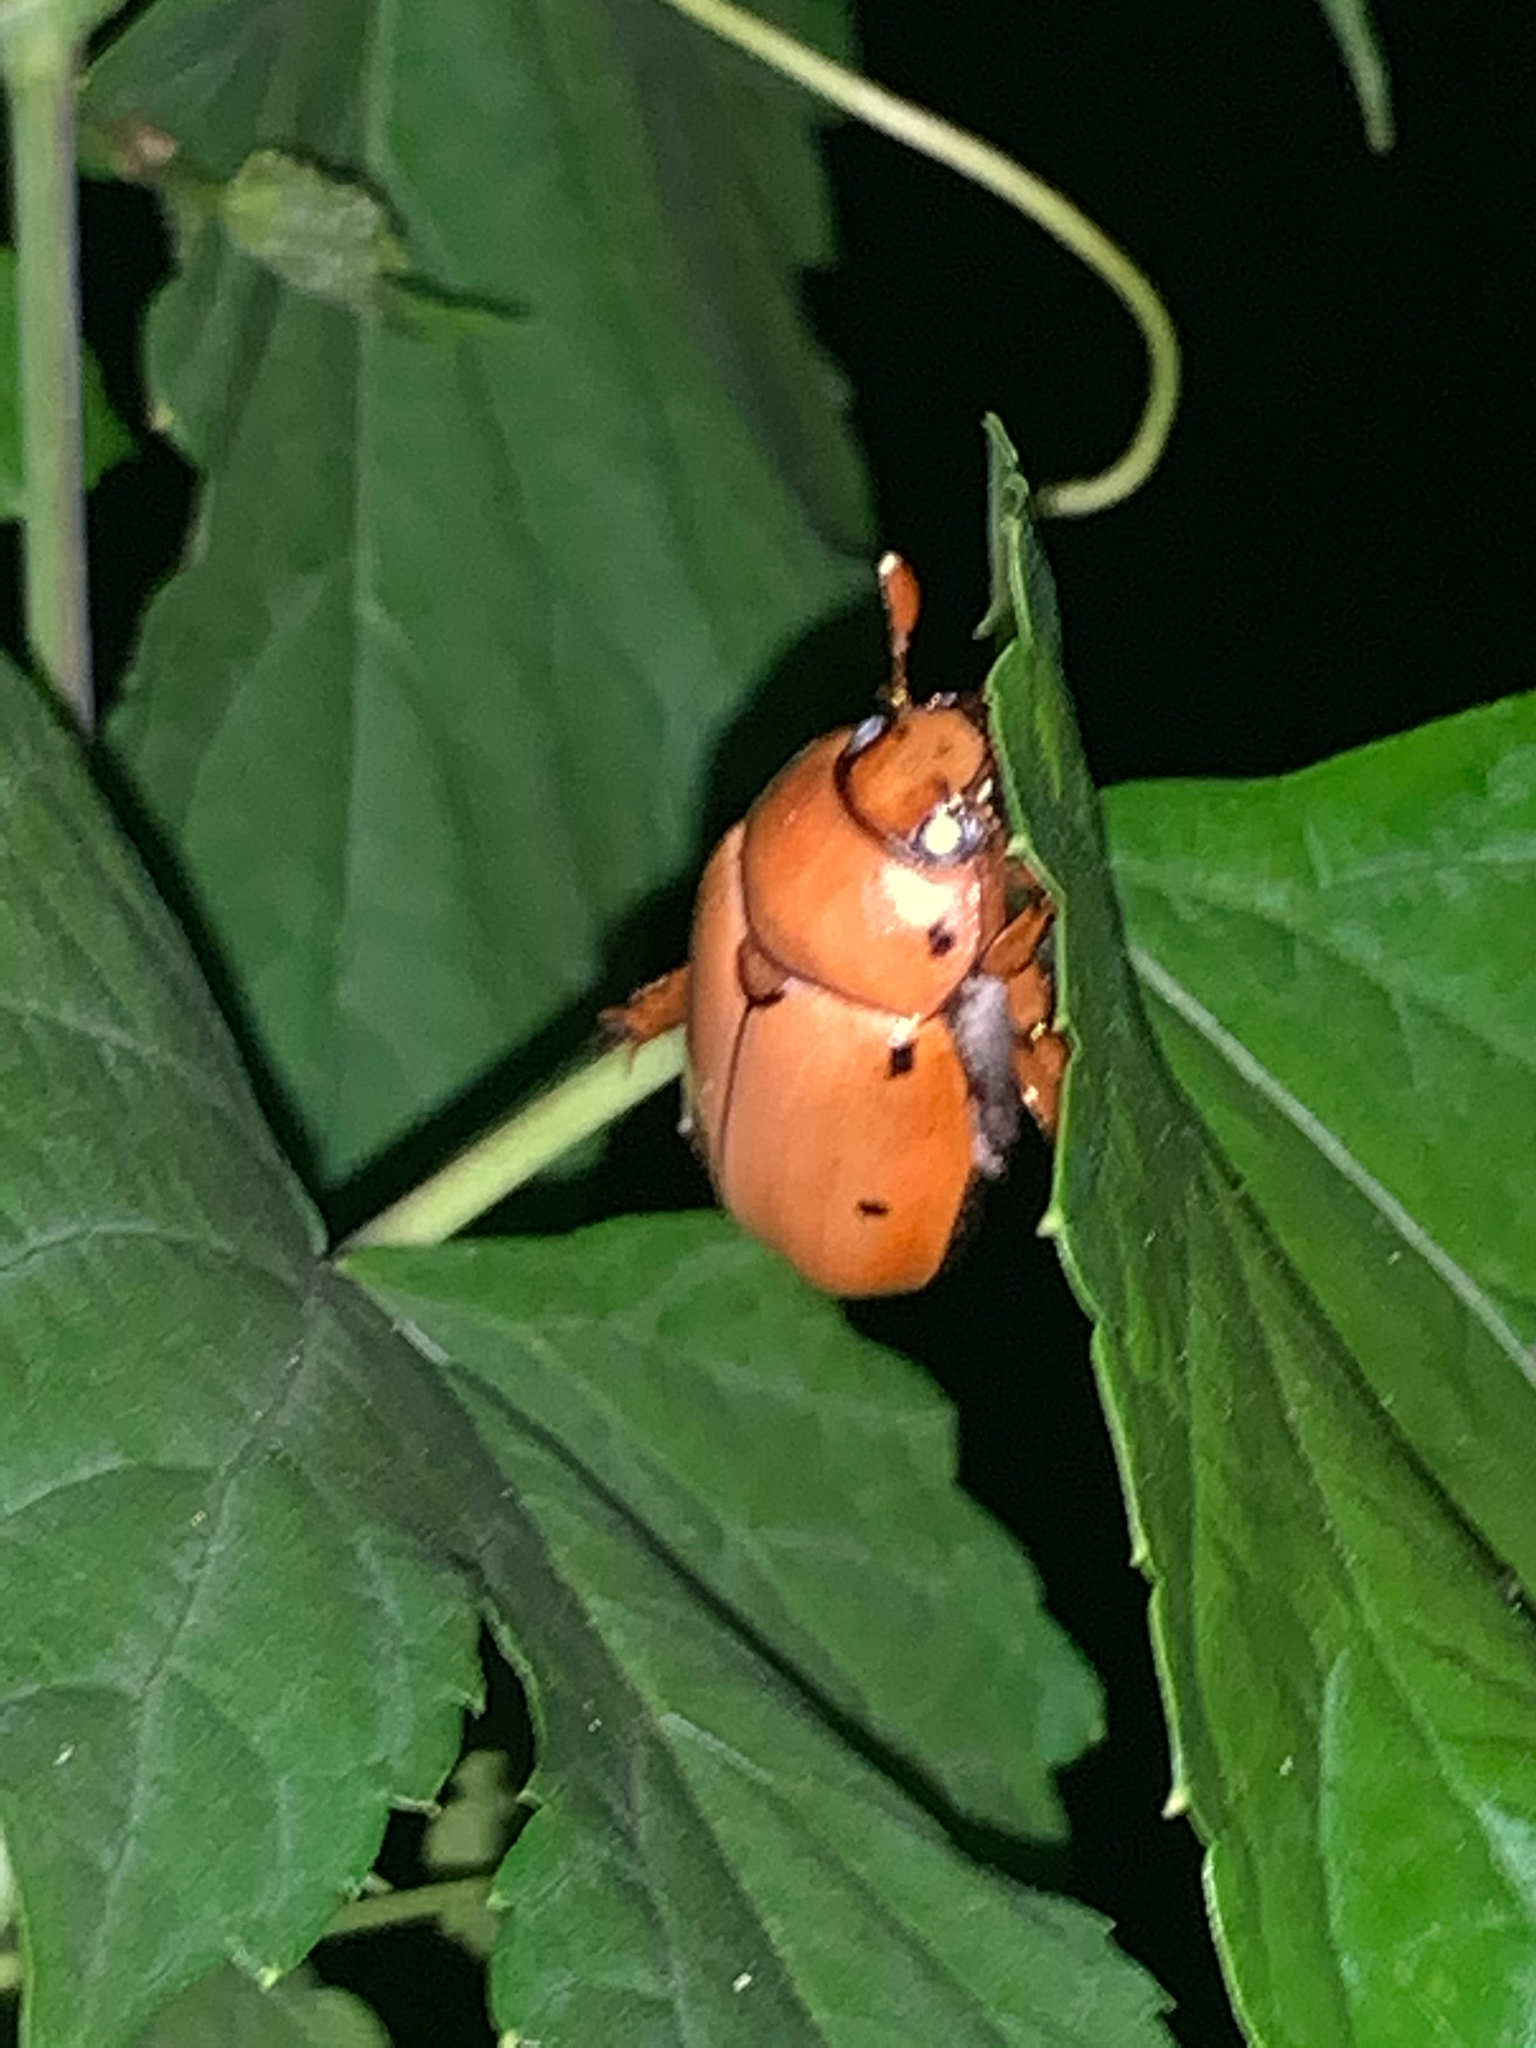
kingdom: Animalia
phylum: Arthropoda
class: Insecta
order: Coleoptera
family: Scarabaeidae
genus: Pelidnota
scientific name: Pelidnota punctata
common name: Grapevine beetle
